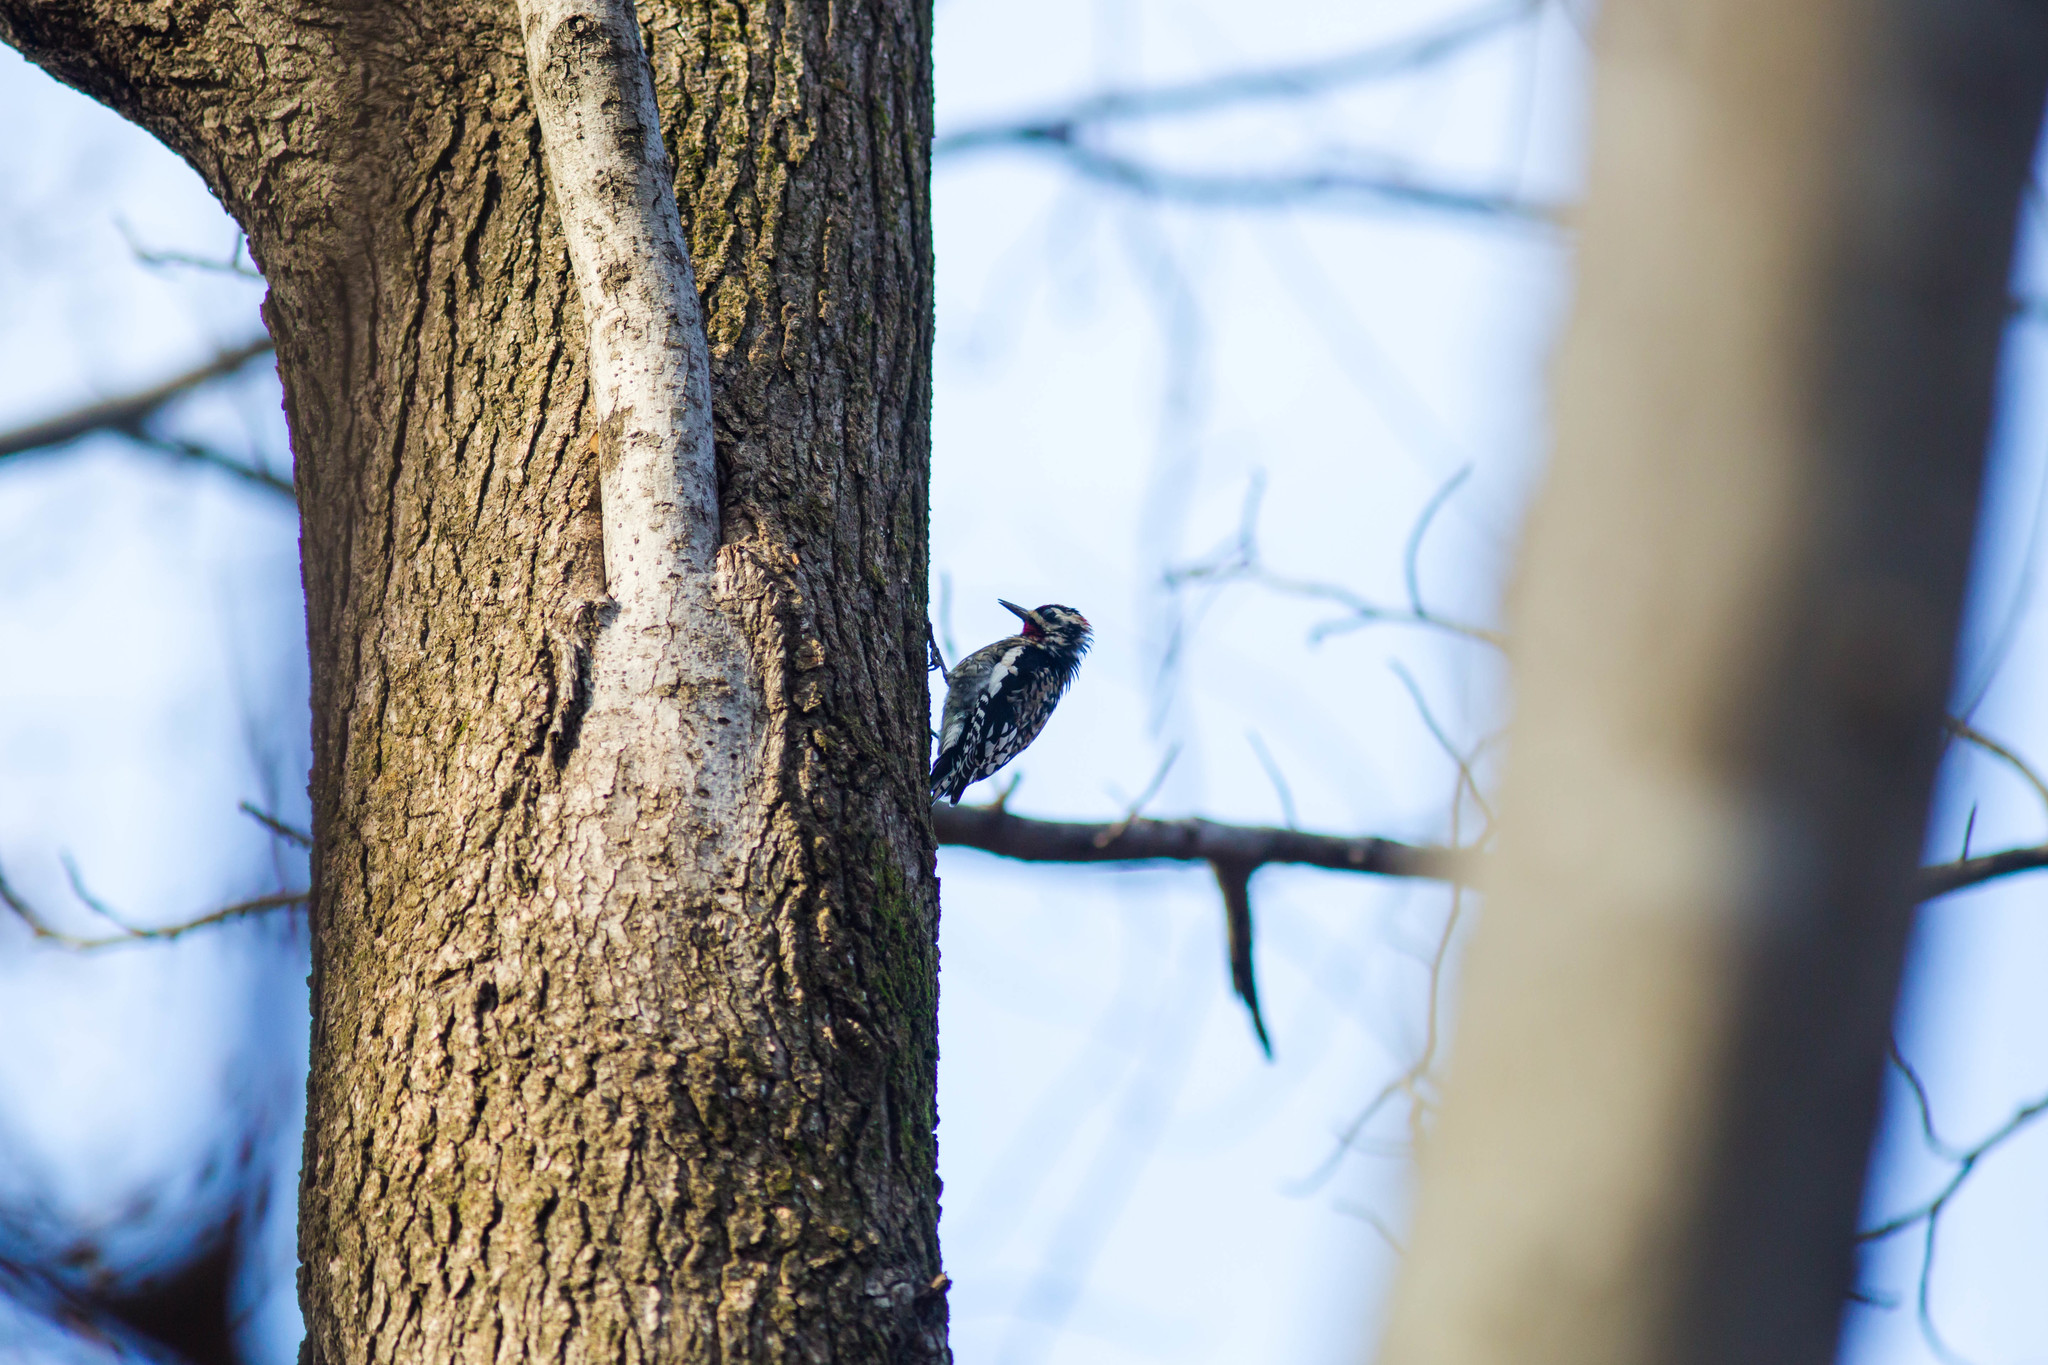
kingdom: Animalia
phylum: Chordata
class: Aves
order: Piciformes
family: Picidae
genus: Sphyrapicus
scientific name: Sphyrapicus varius
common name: Yellow-bellied sapsucker
